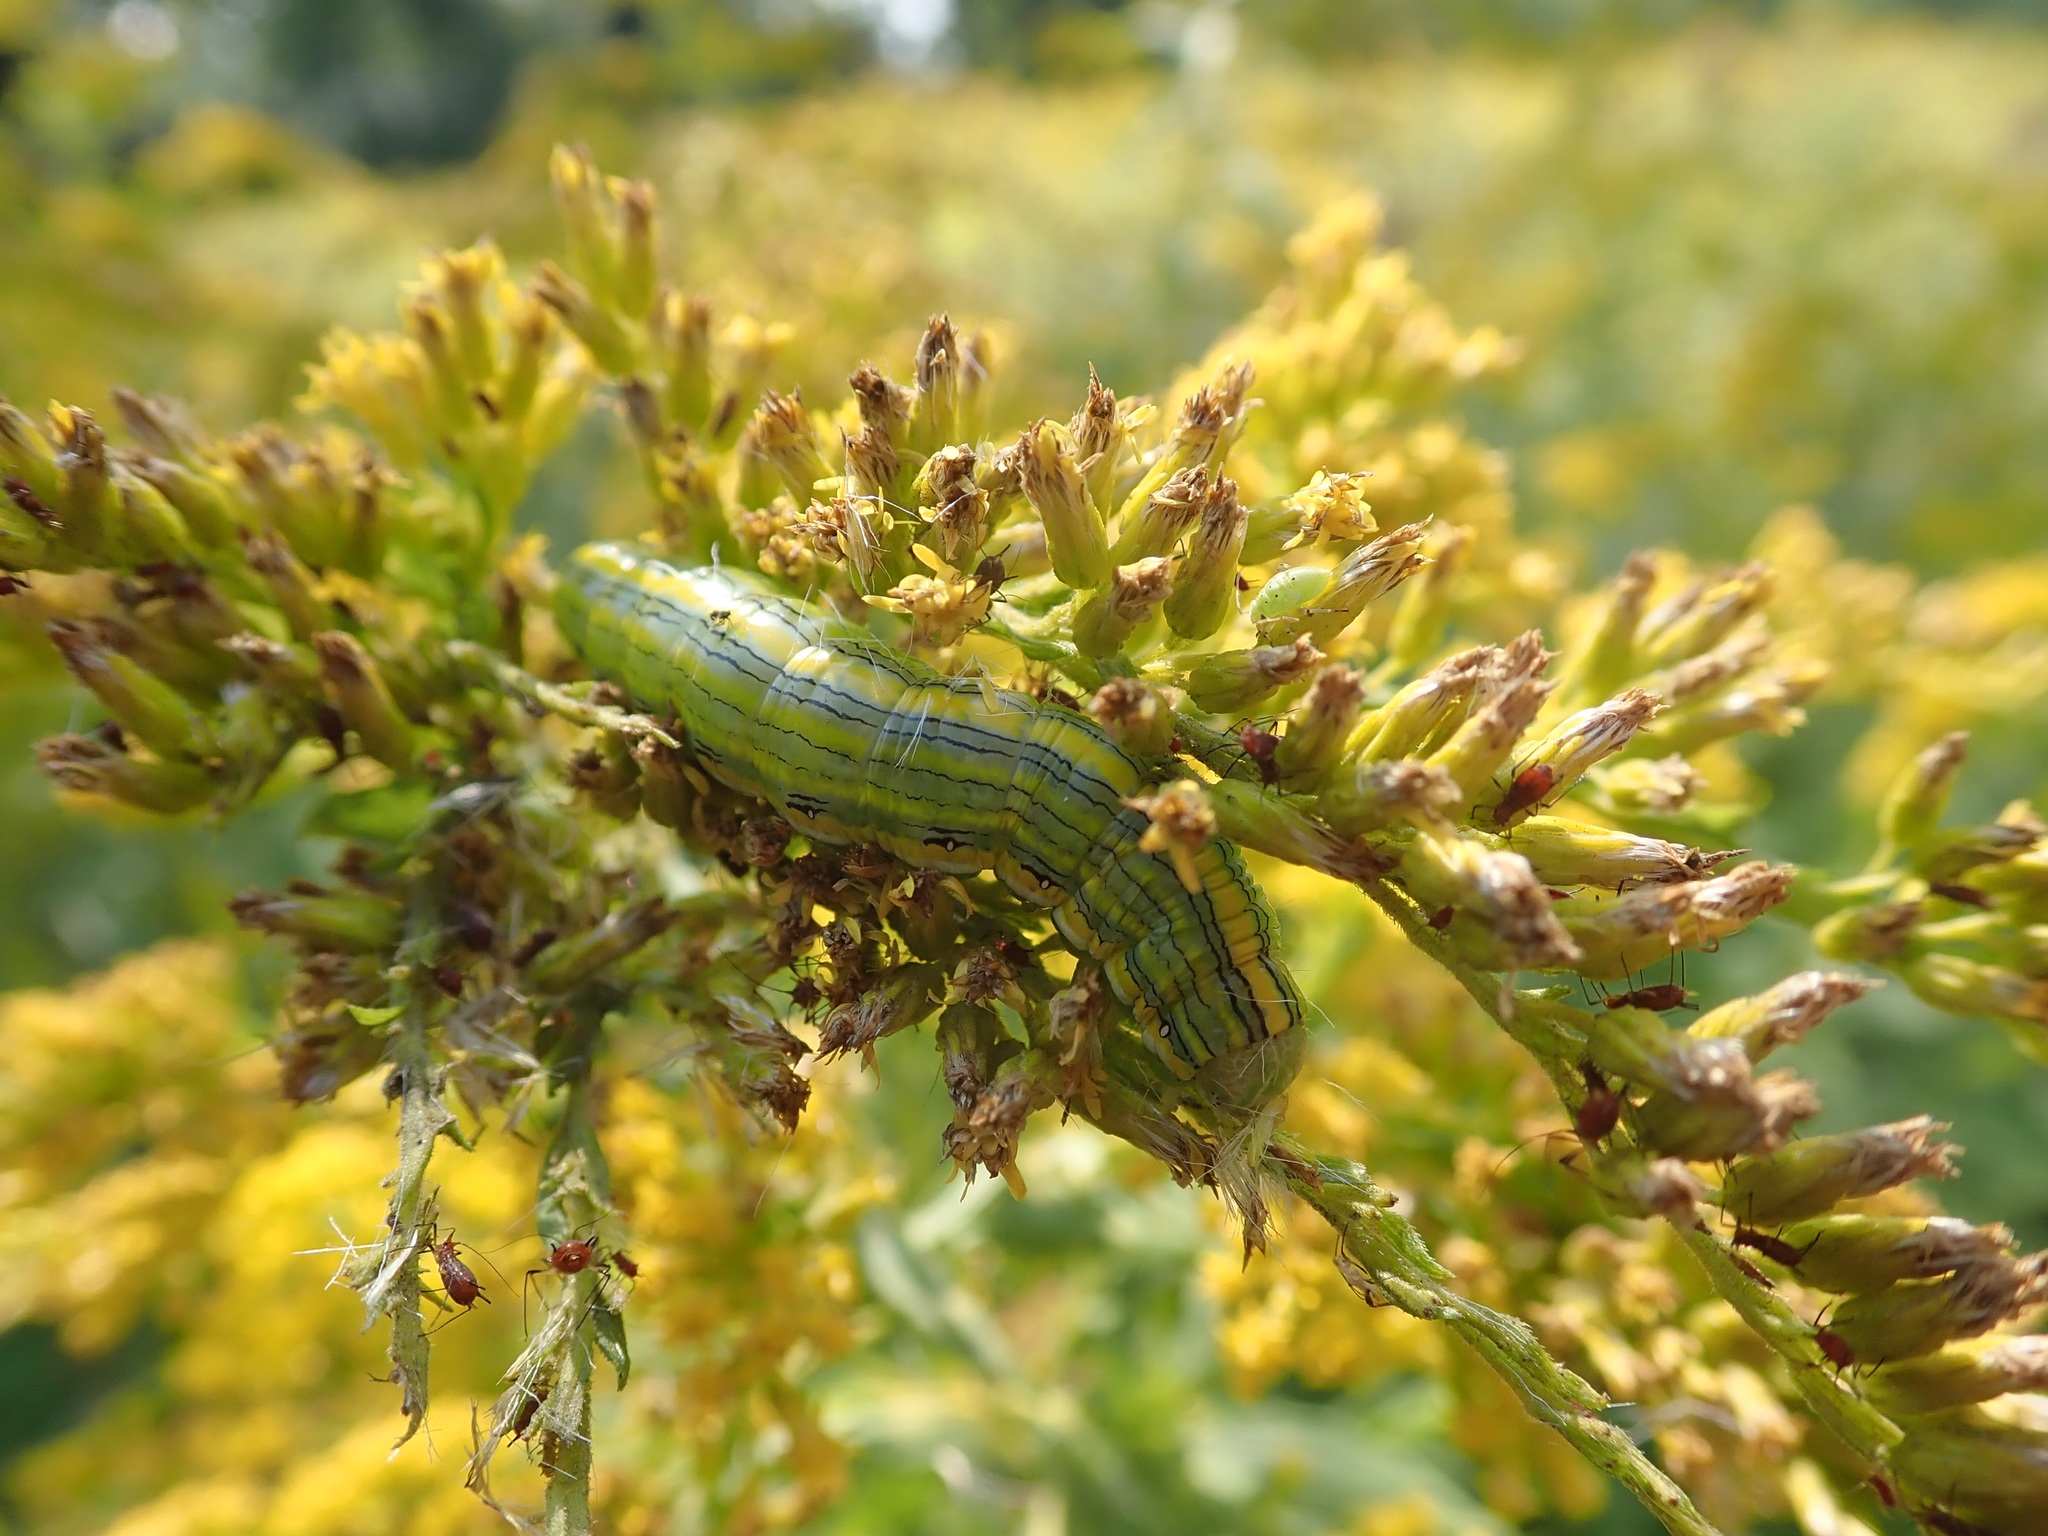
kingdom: Animalia
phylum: Arthropoda
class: Insecta
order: Lepidoptera
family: Noctuidae
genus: Cucullia
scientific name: Cucullia asteroides
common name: Asteroid moth
